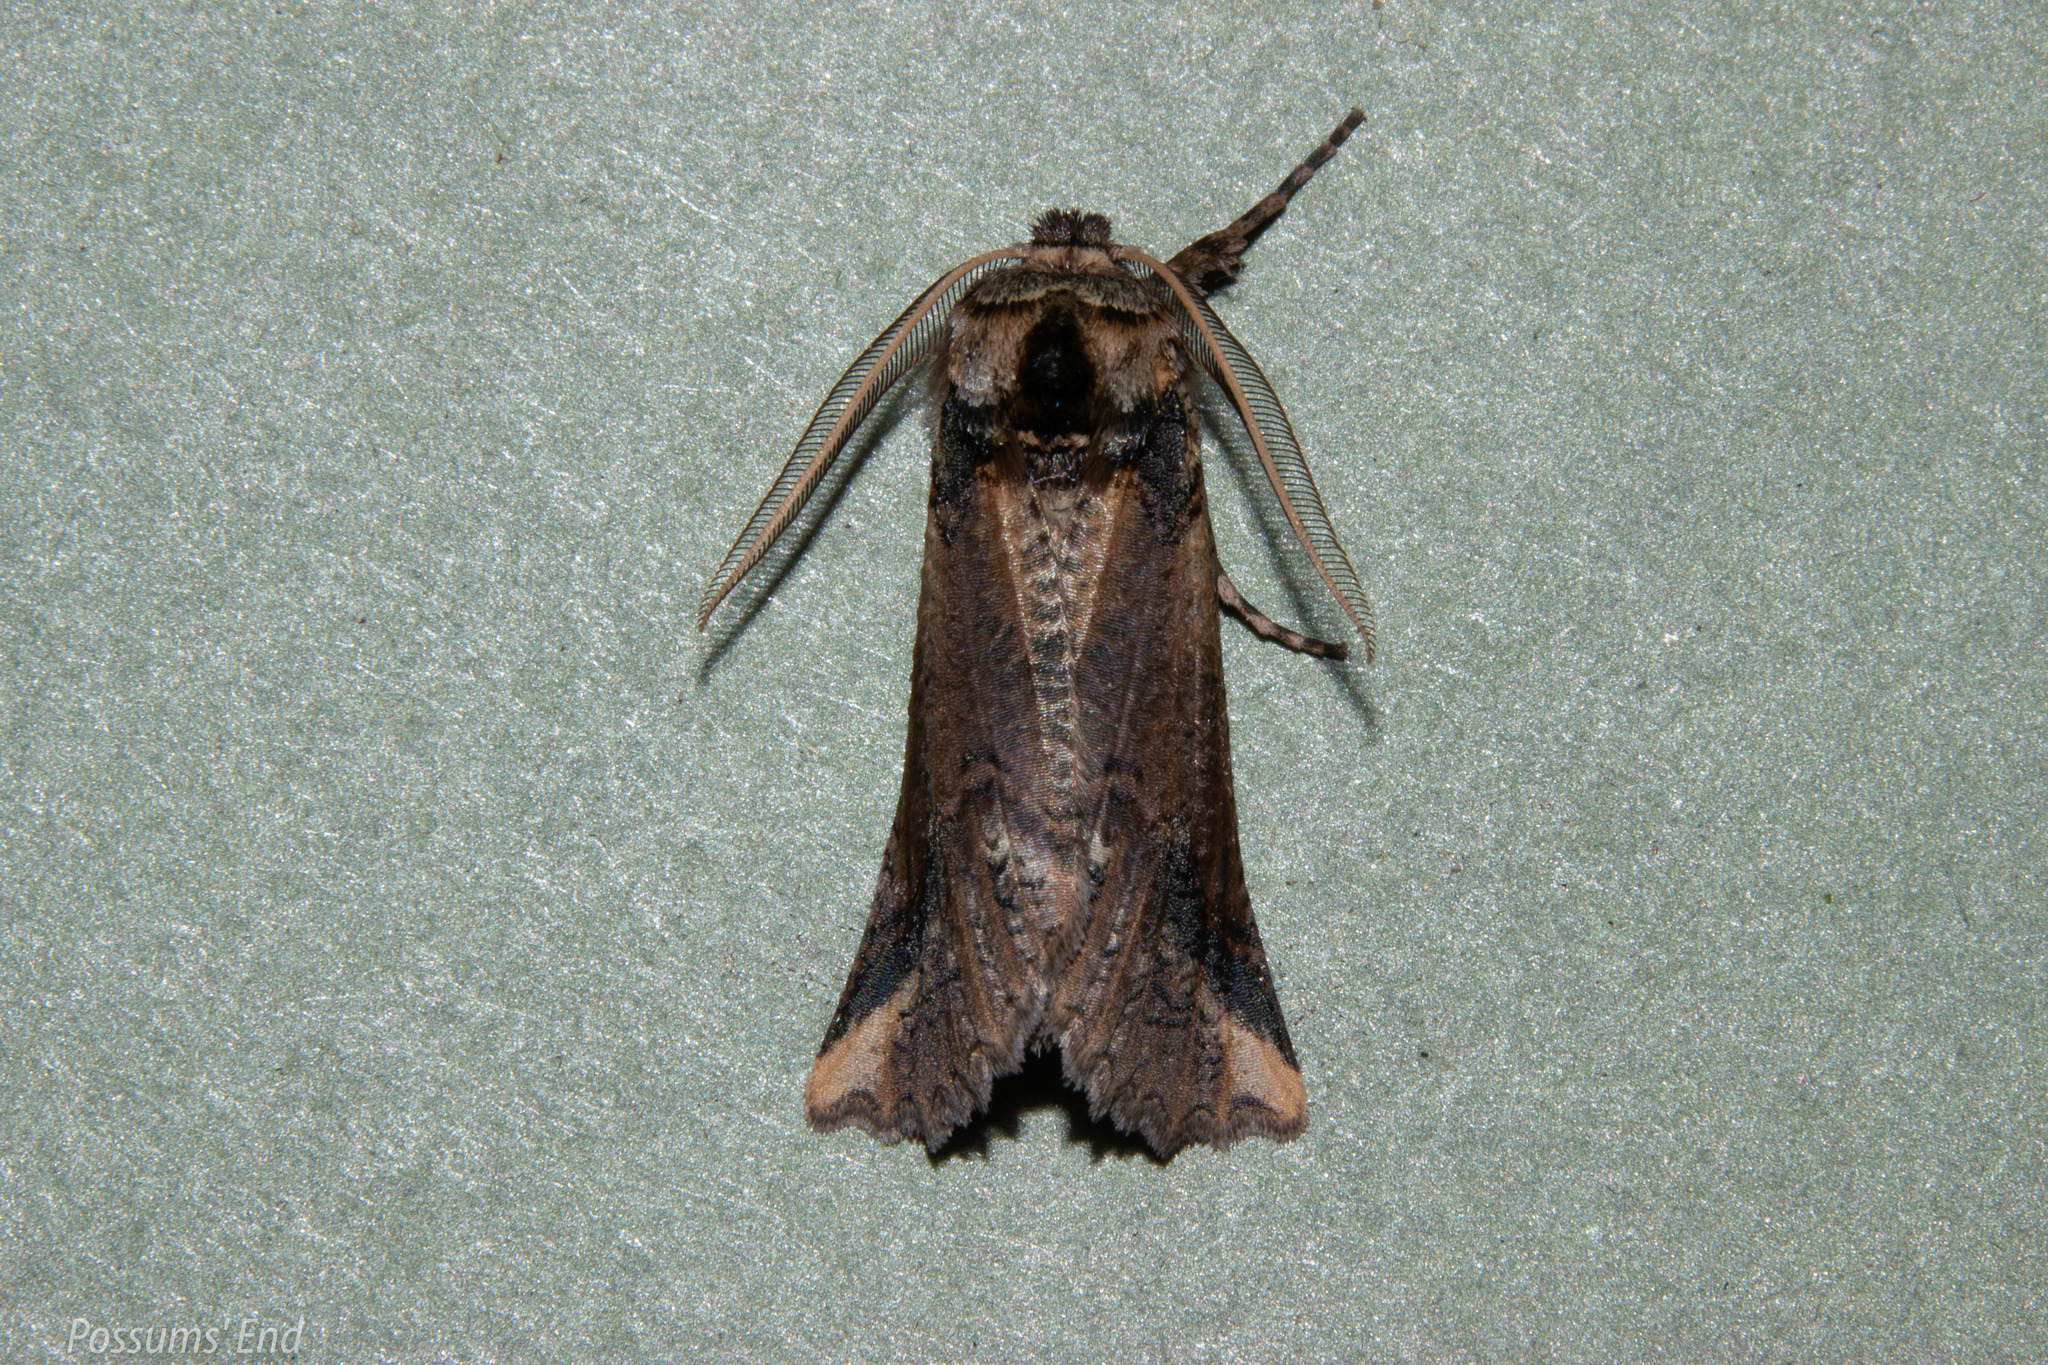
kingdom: Animalia
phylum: Arthropoda
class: Insecta
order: Lepidoptera
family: Geometridae
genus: Declana
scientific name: Declana
